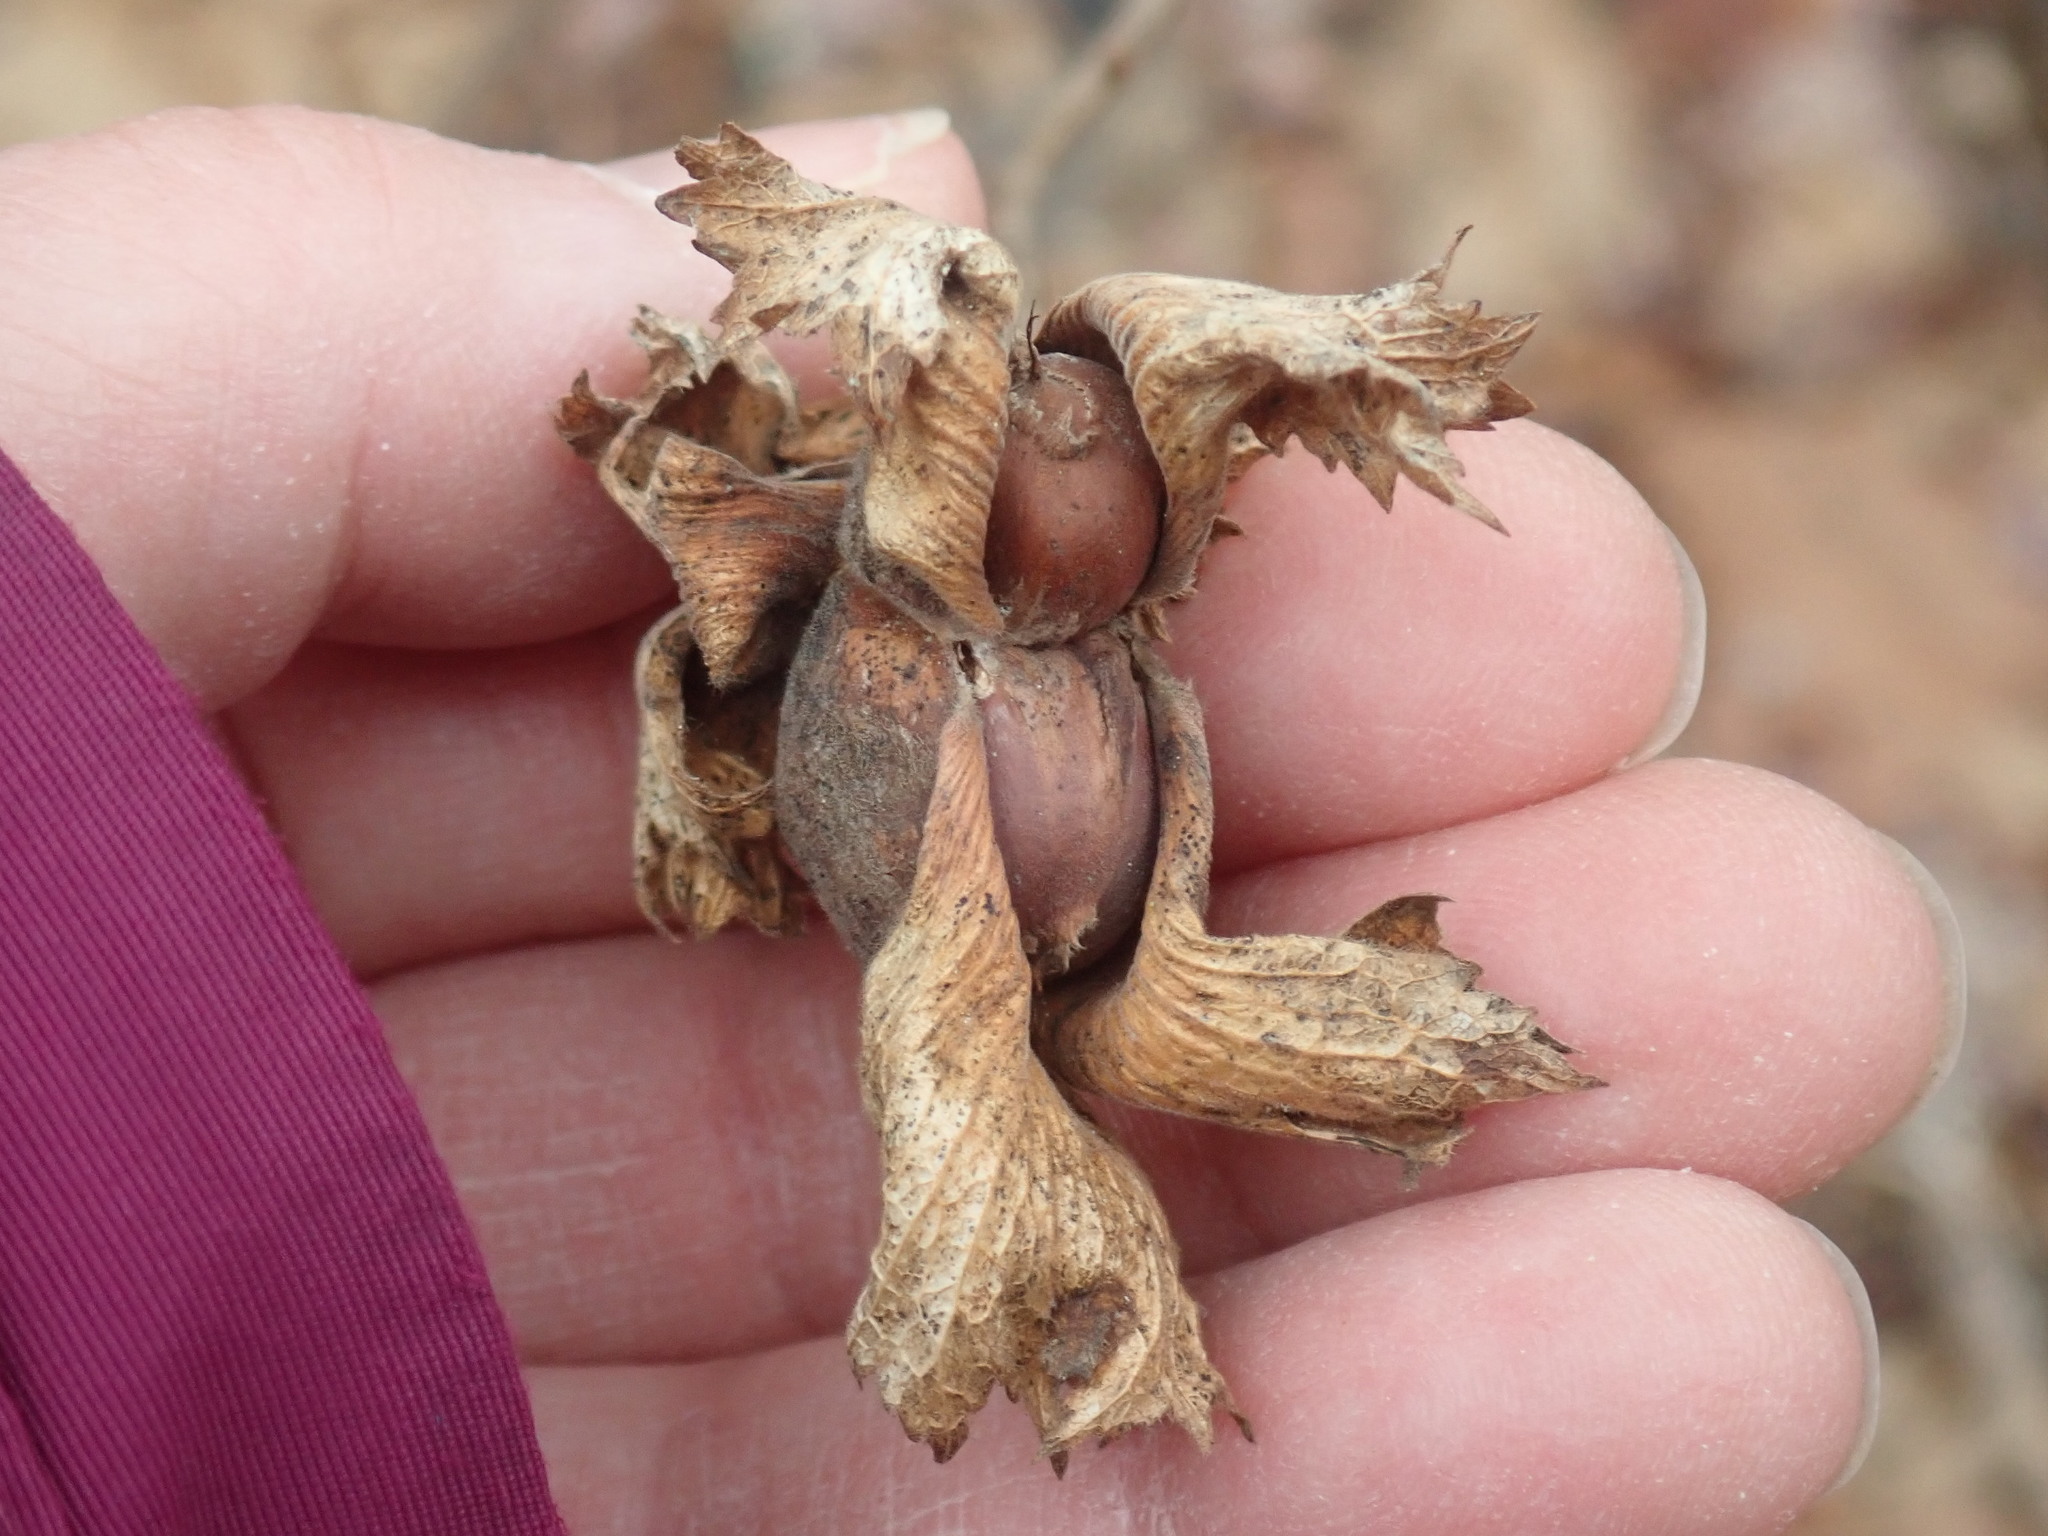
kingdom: Plantae
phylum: Tracheophyta
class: Magnoliopsida
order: Fagales
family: Betulaceae
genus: Corylus
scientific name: Corylus americana
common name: American hazel
